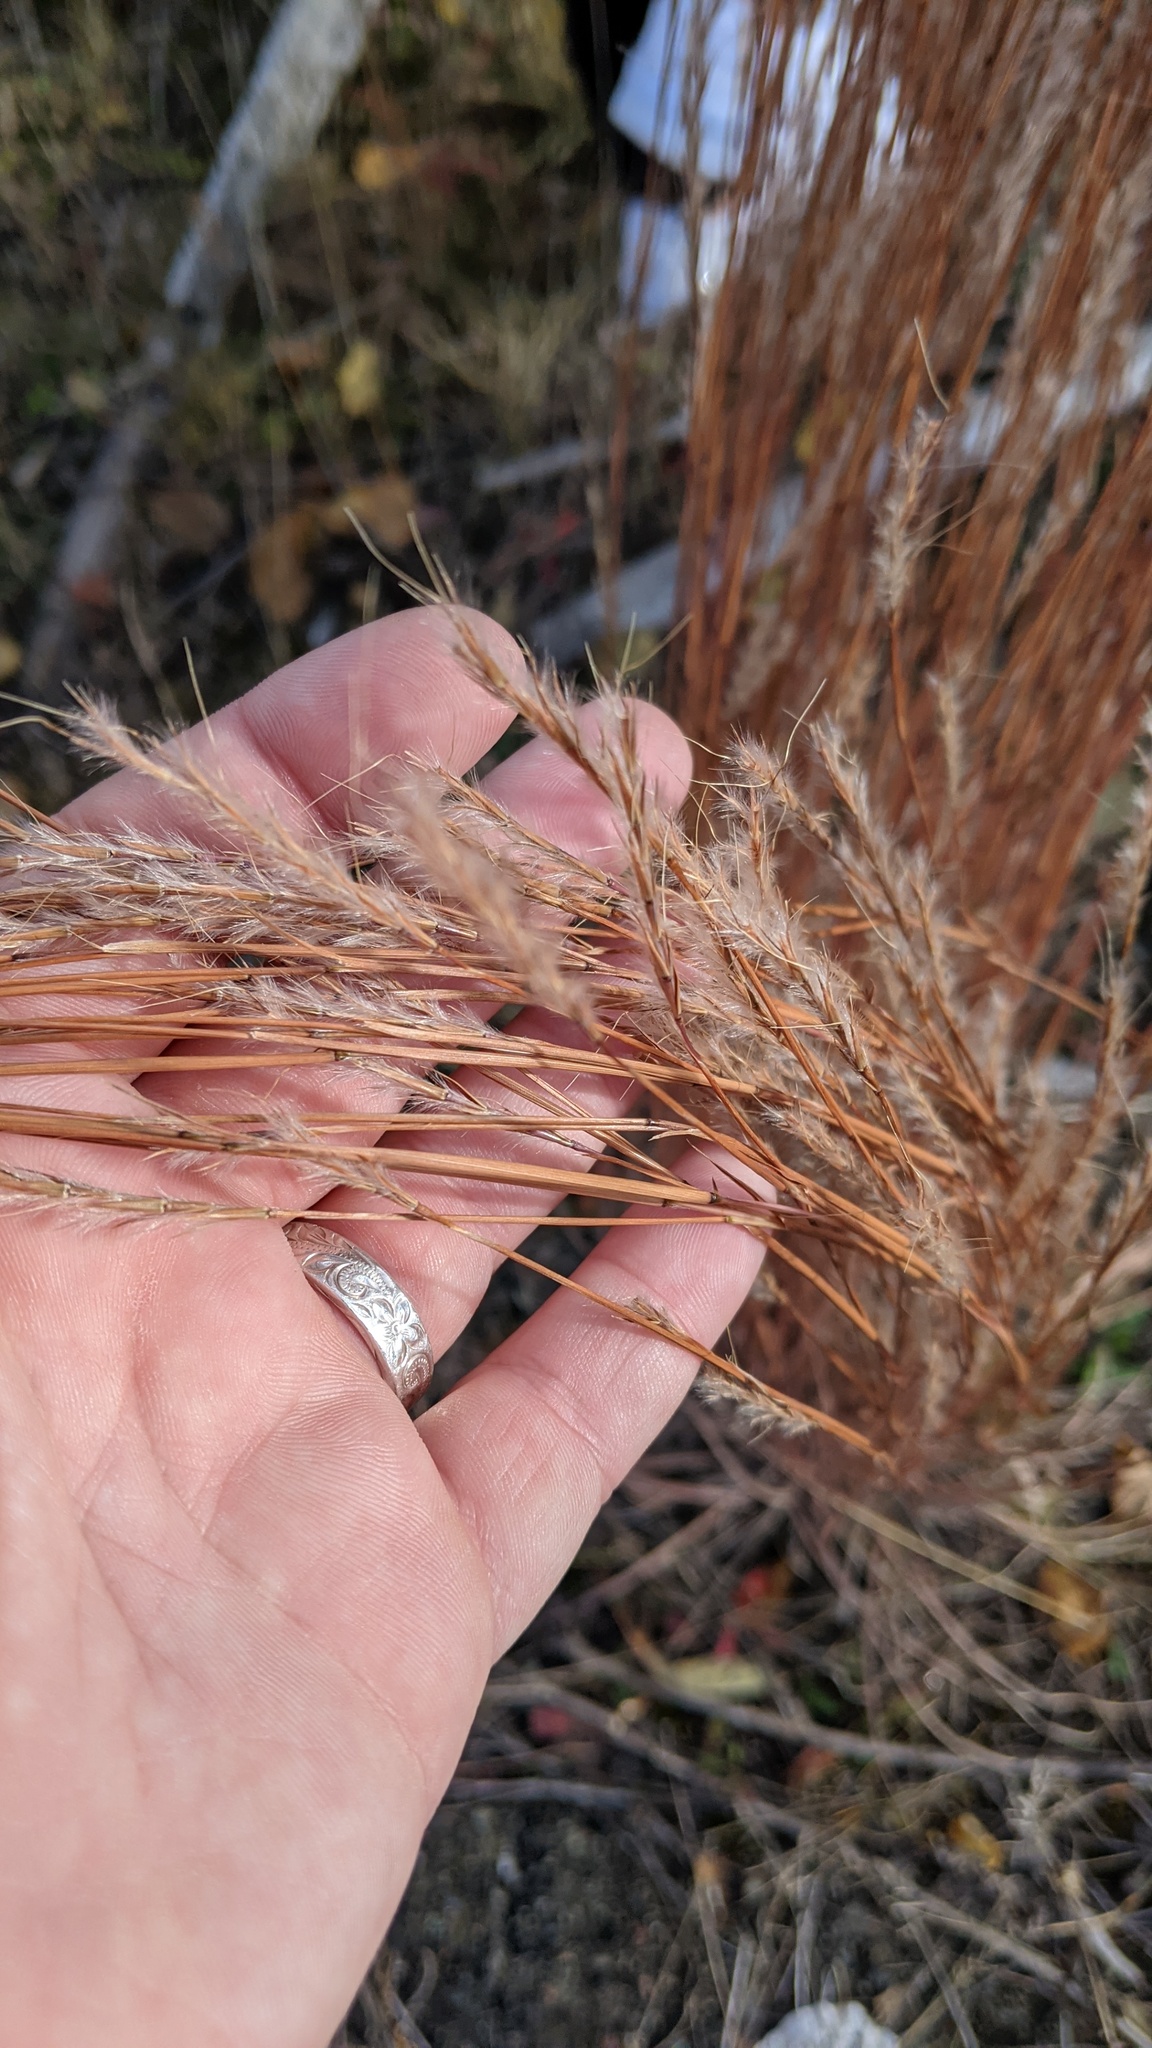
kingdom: Plantae
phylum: Tracheophyta
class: Liliopsida
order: Poales
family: Poaceae
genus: Schizachyrium
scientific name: Schizachyrium scoparium
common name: Little bluestem
